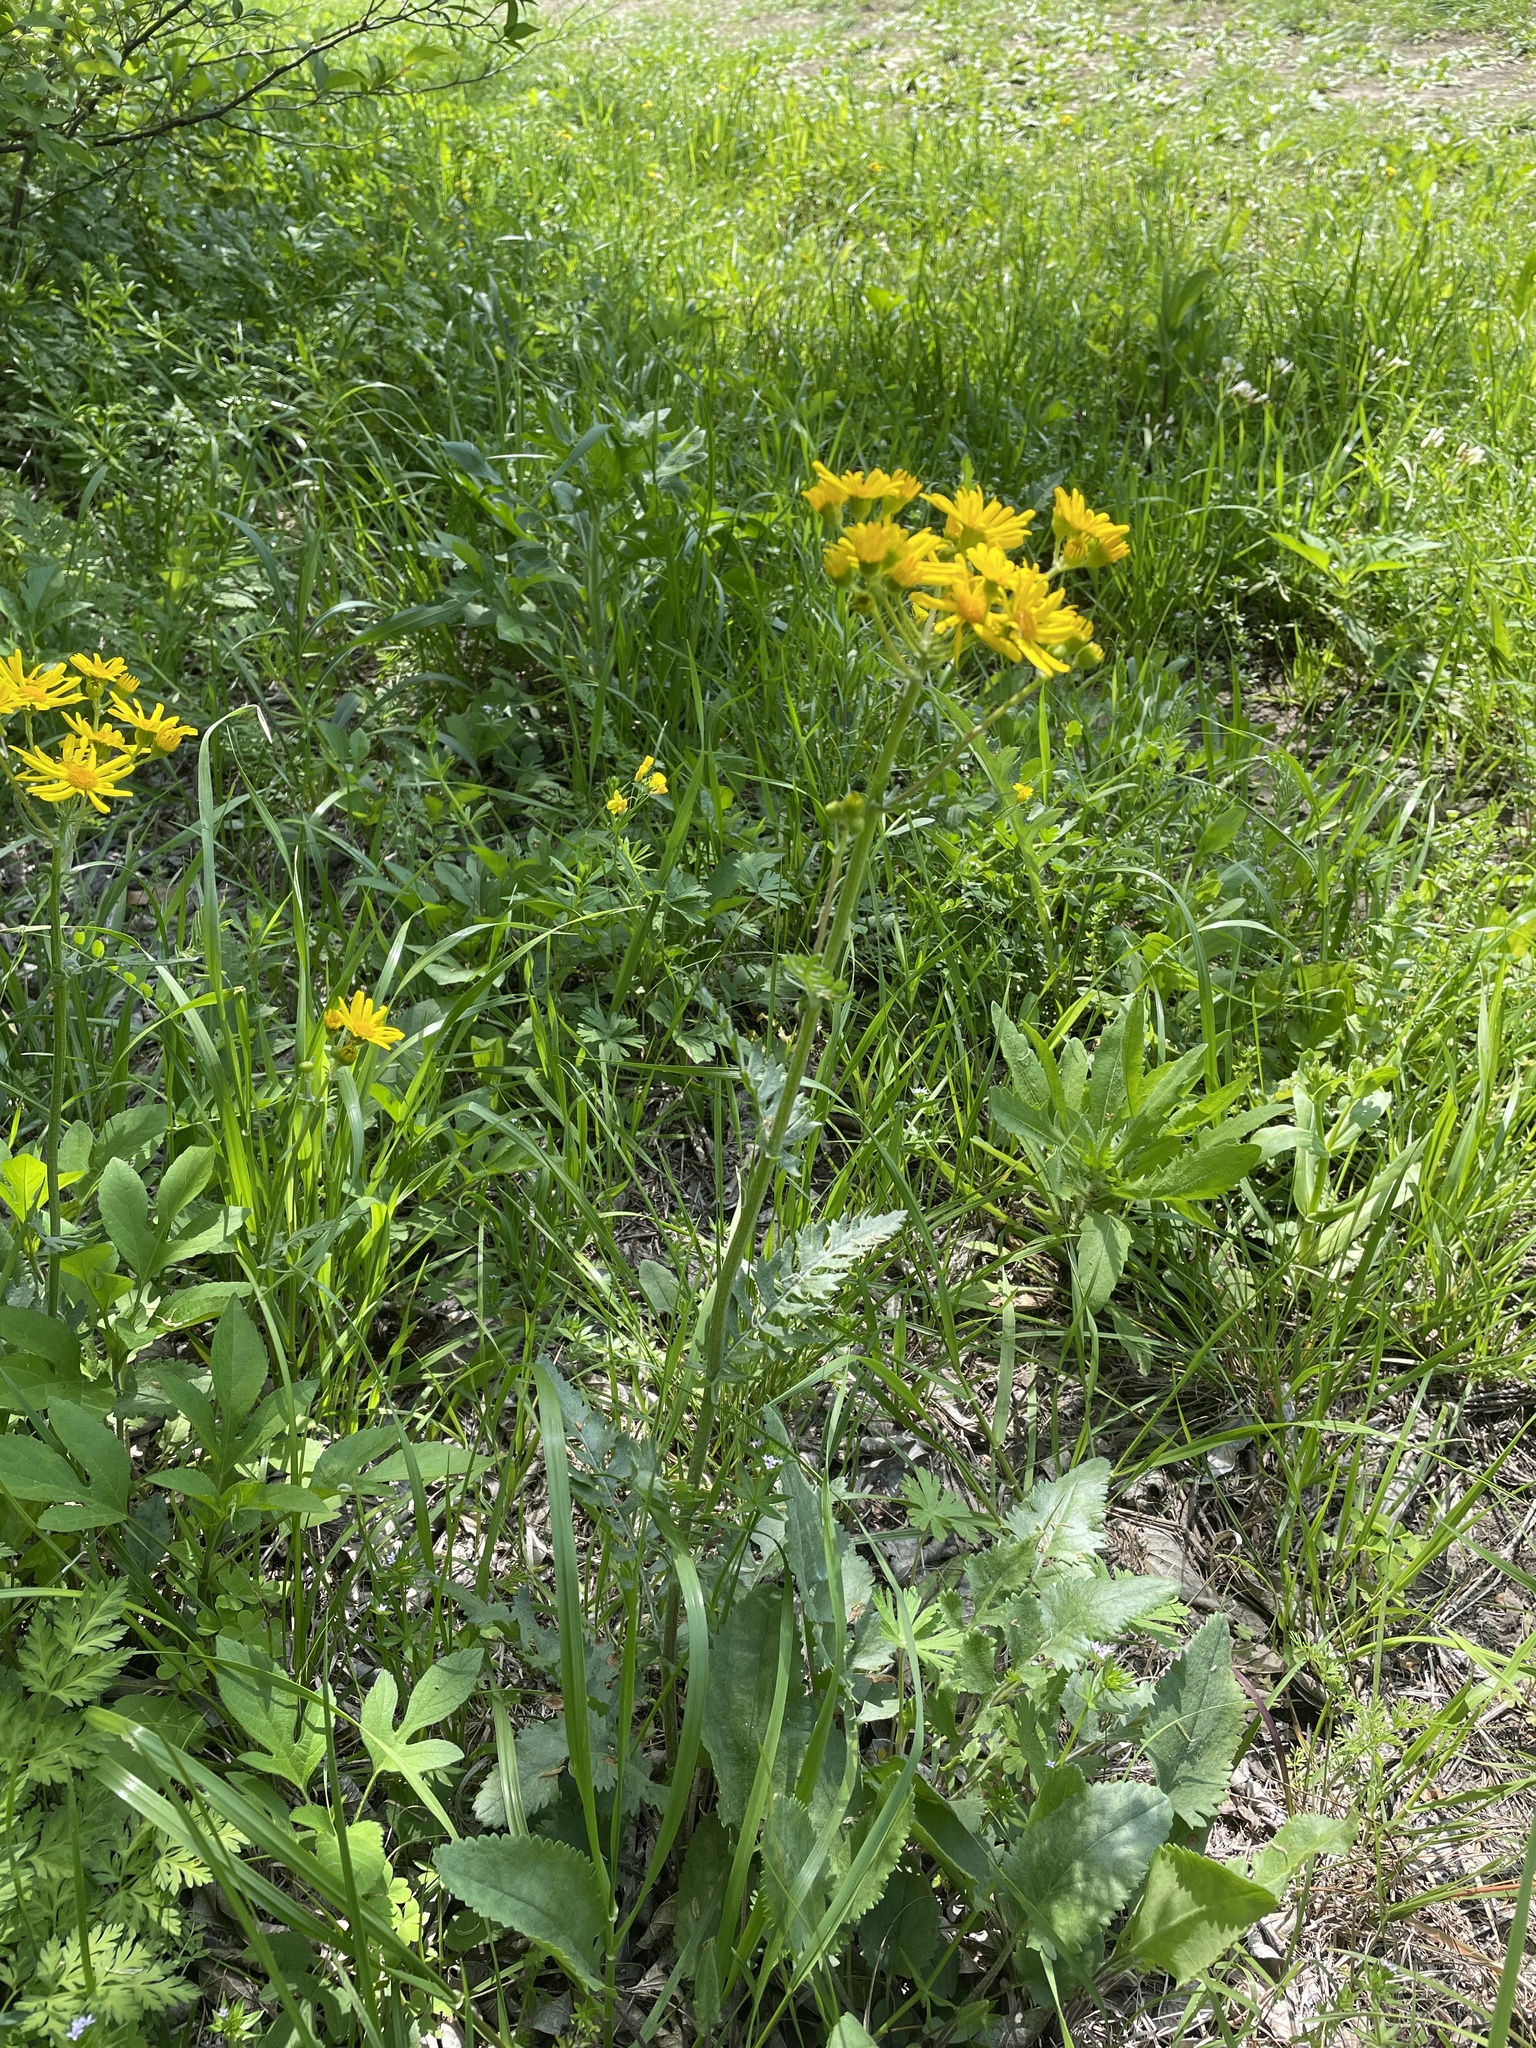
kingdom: Plantae
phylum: Tracheophyta
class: Magnoliopsida
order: Asterales
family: Asteraceae
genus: Packera
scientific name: Packera plattensis
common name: Prairie groundsel
